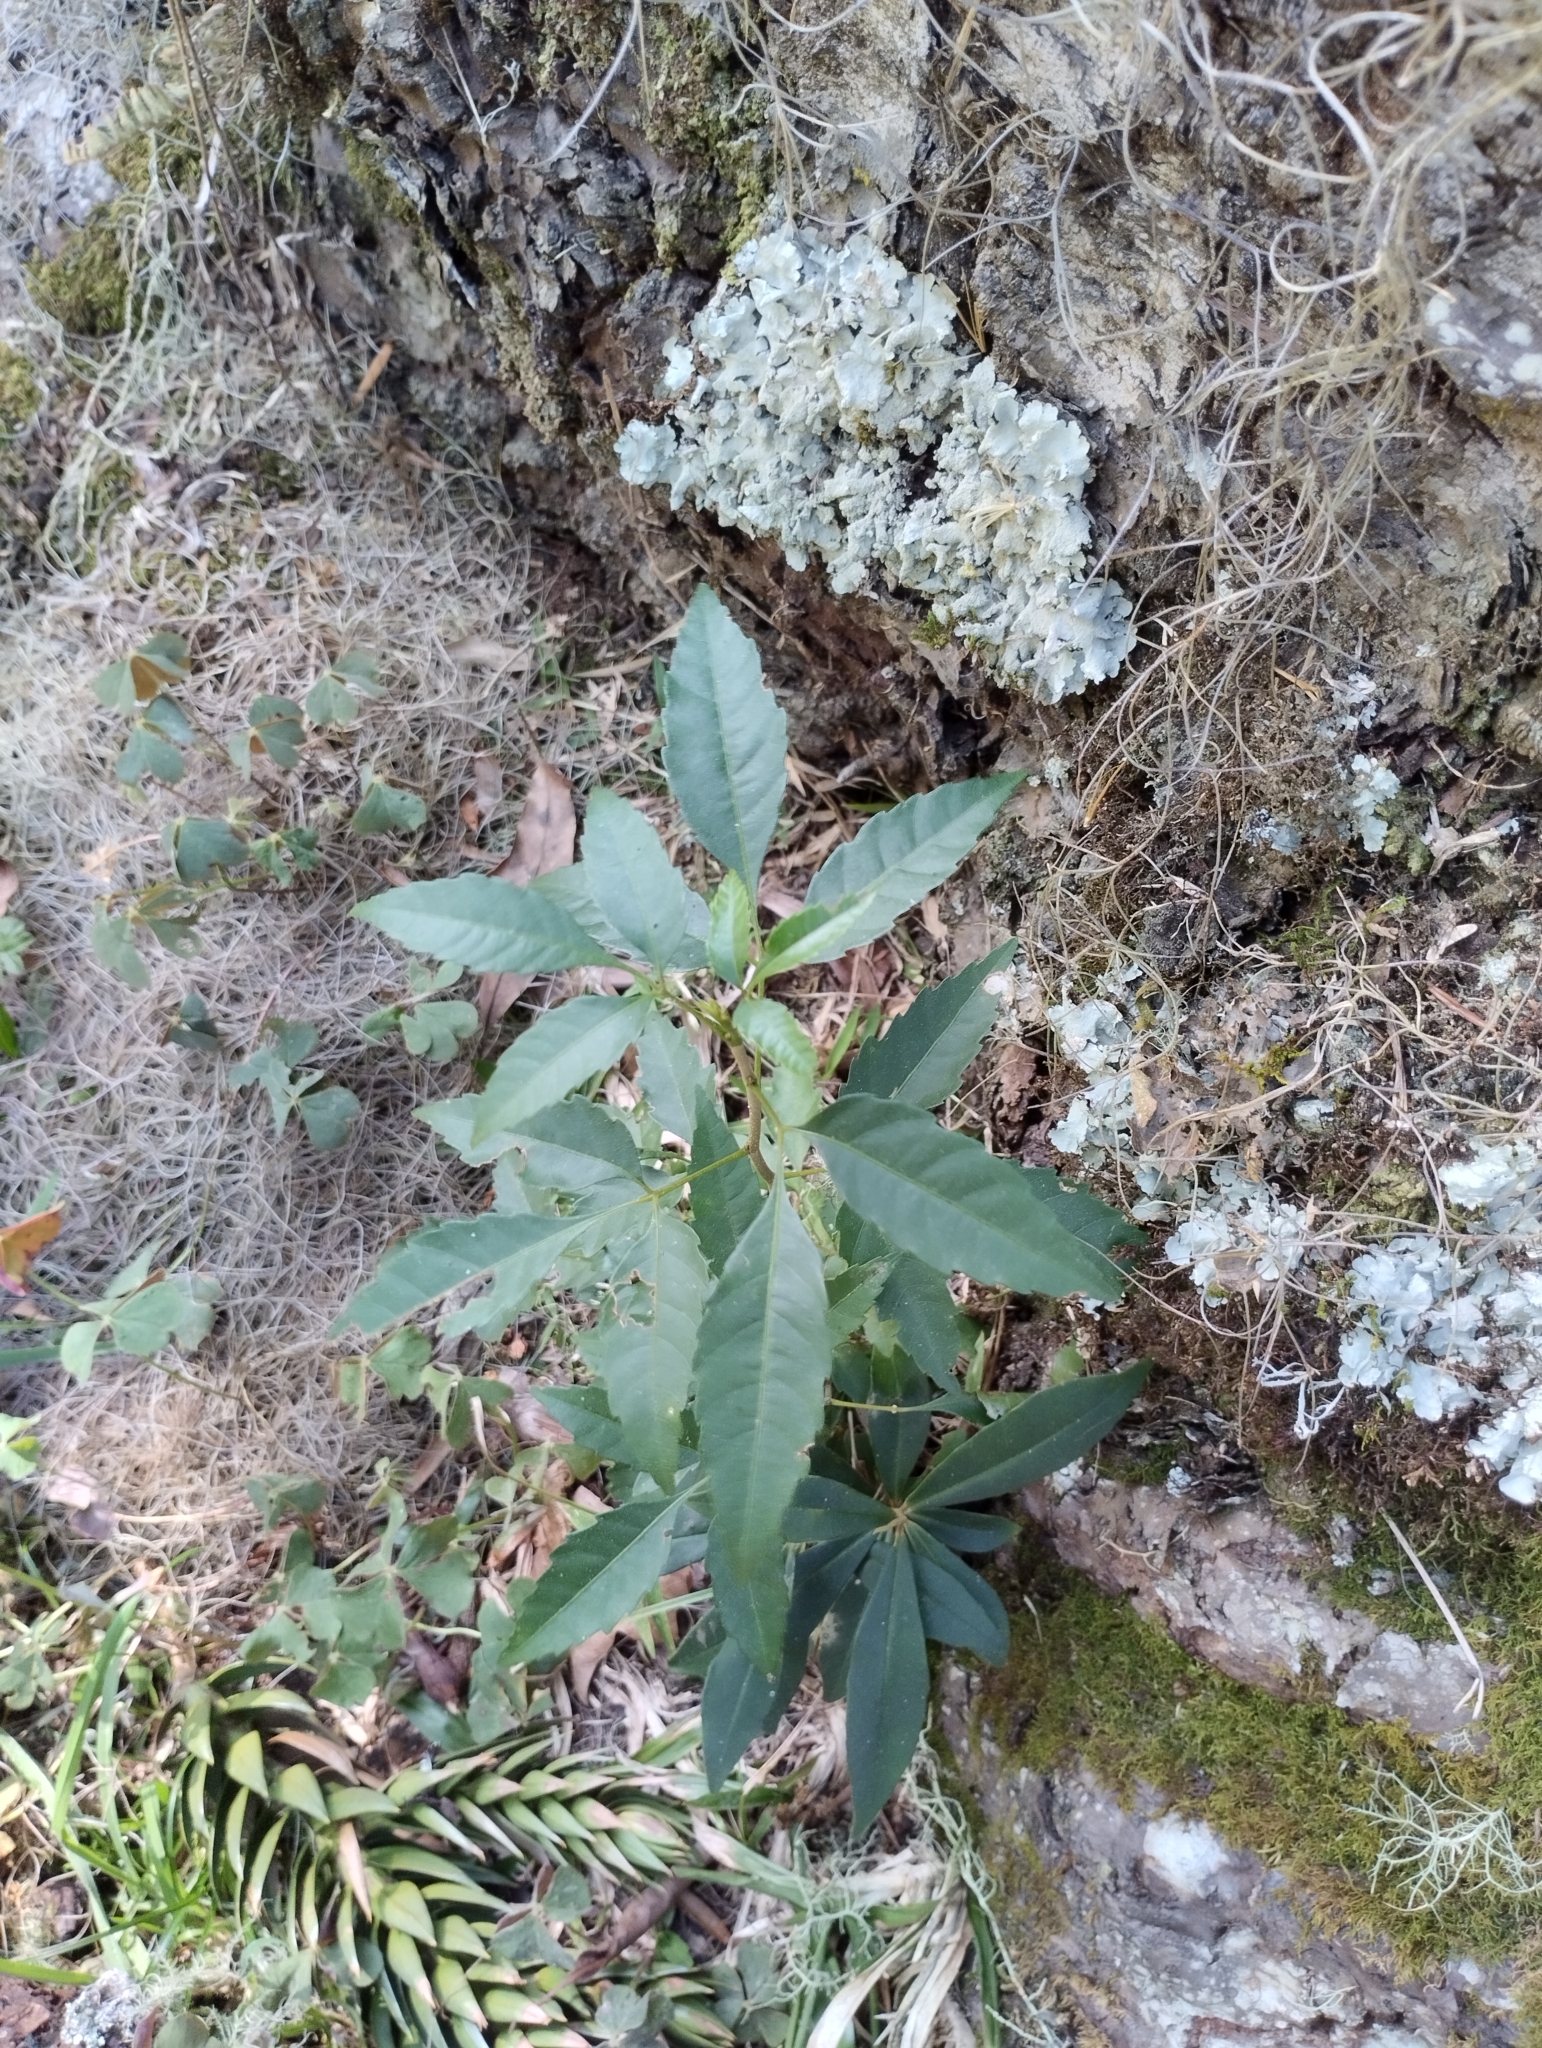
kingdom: Plantae
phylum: Tracheophyta
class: Magnoliopsida
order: Sapindales
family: Sapindaceae
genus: Allophylus
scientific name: Allophylus edulis
